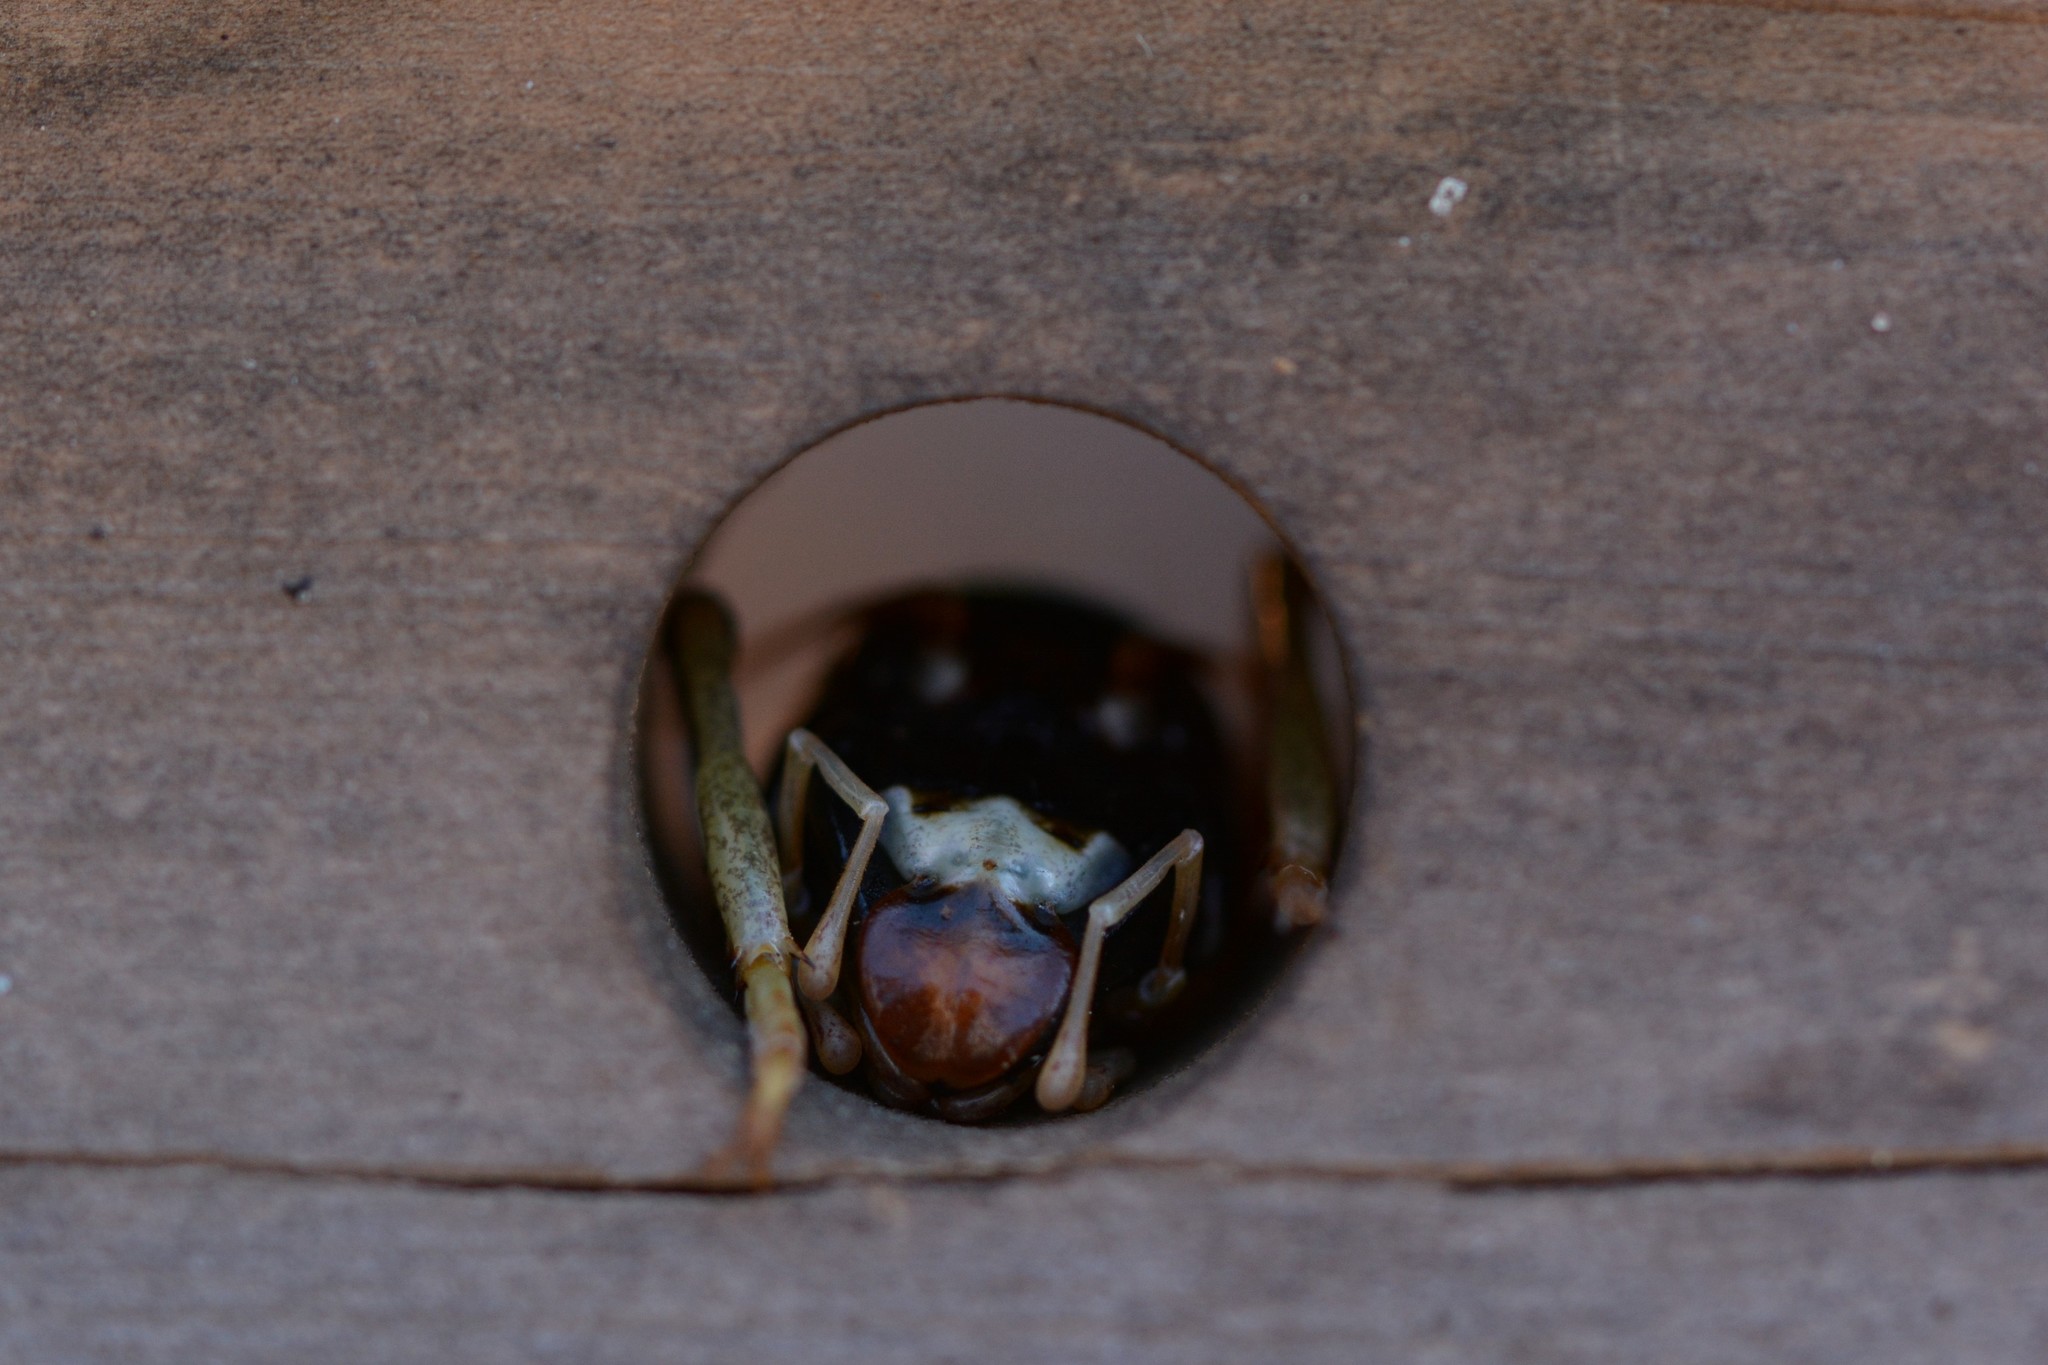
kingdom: Animalia
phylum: Arthropoda
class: Insecta
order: Orthoptera
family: Anostostomatidae
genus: Hemideina
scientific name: Hemideina maori
